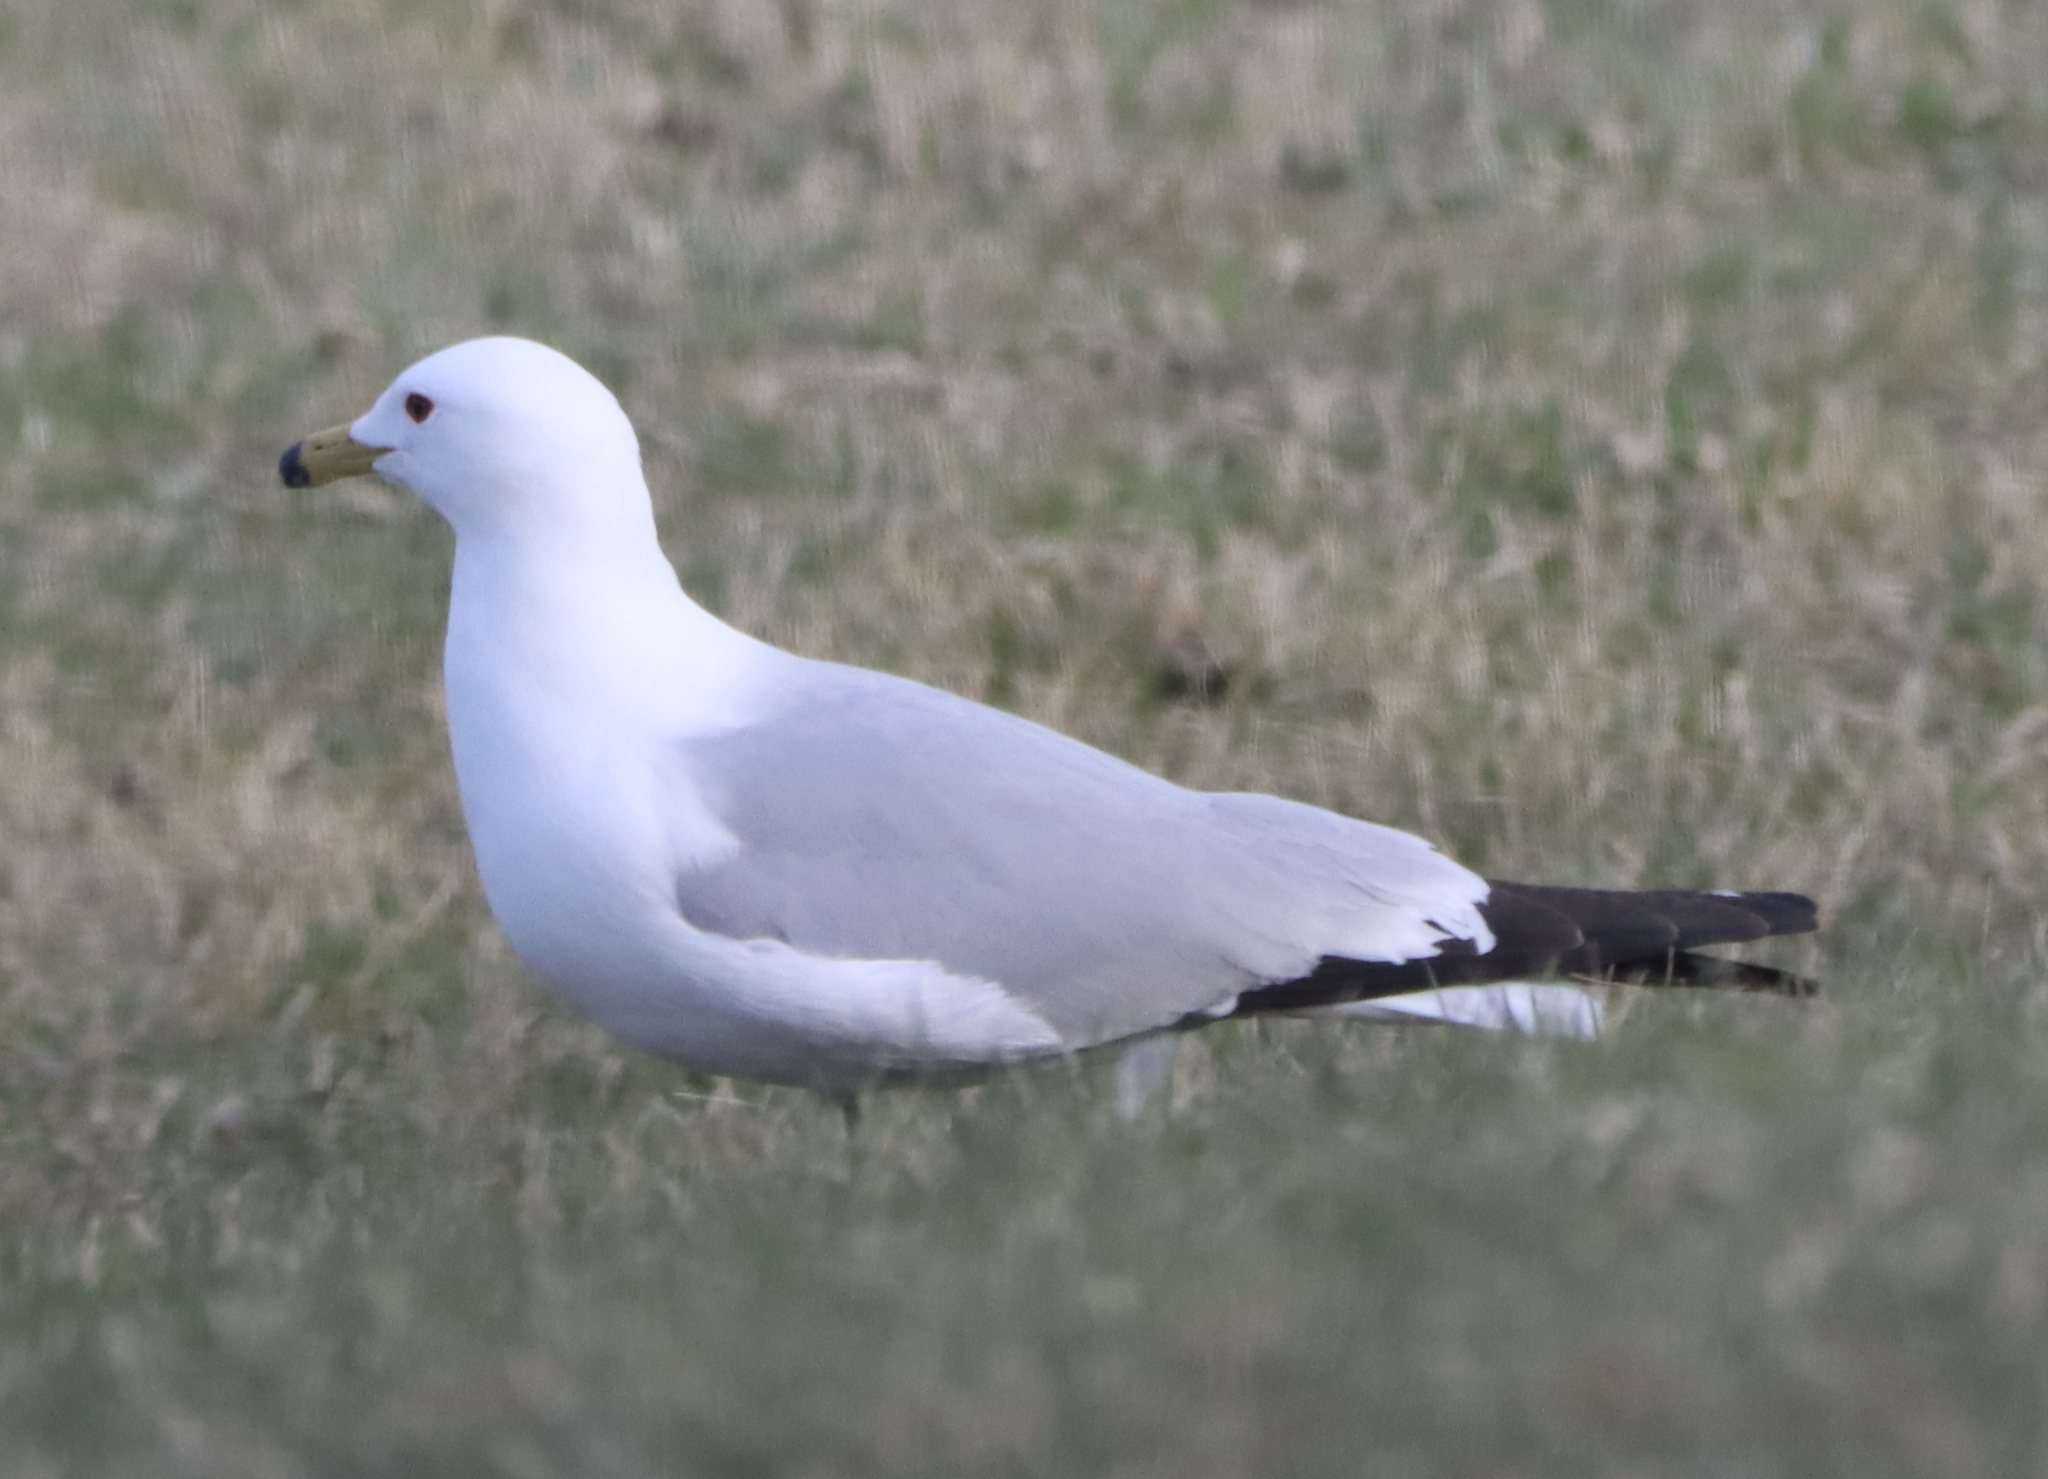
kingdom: Animalia
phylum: Chordata
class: Aves
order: Charadriiformes
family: Laridae
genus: Larus
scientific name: Larus delawarensis
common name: Ring-billed gull
